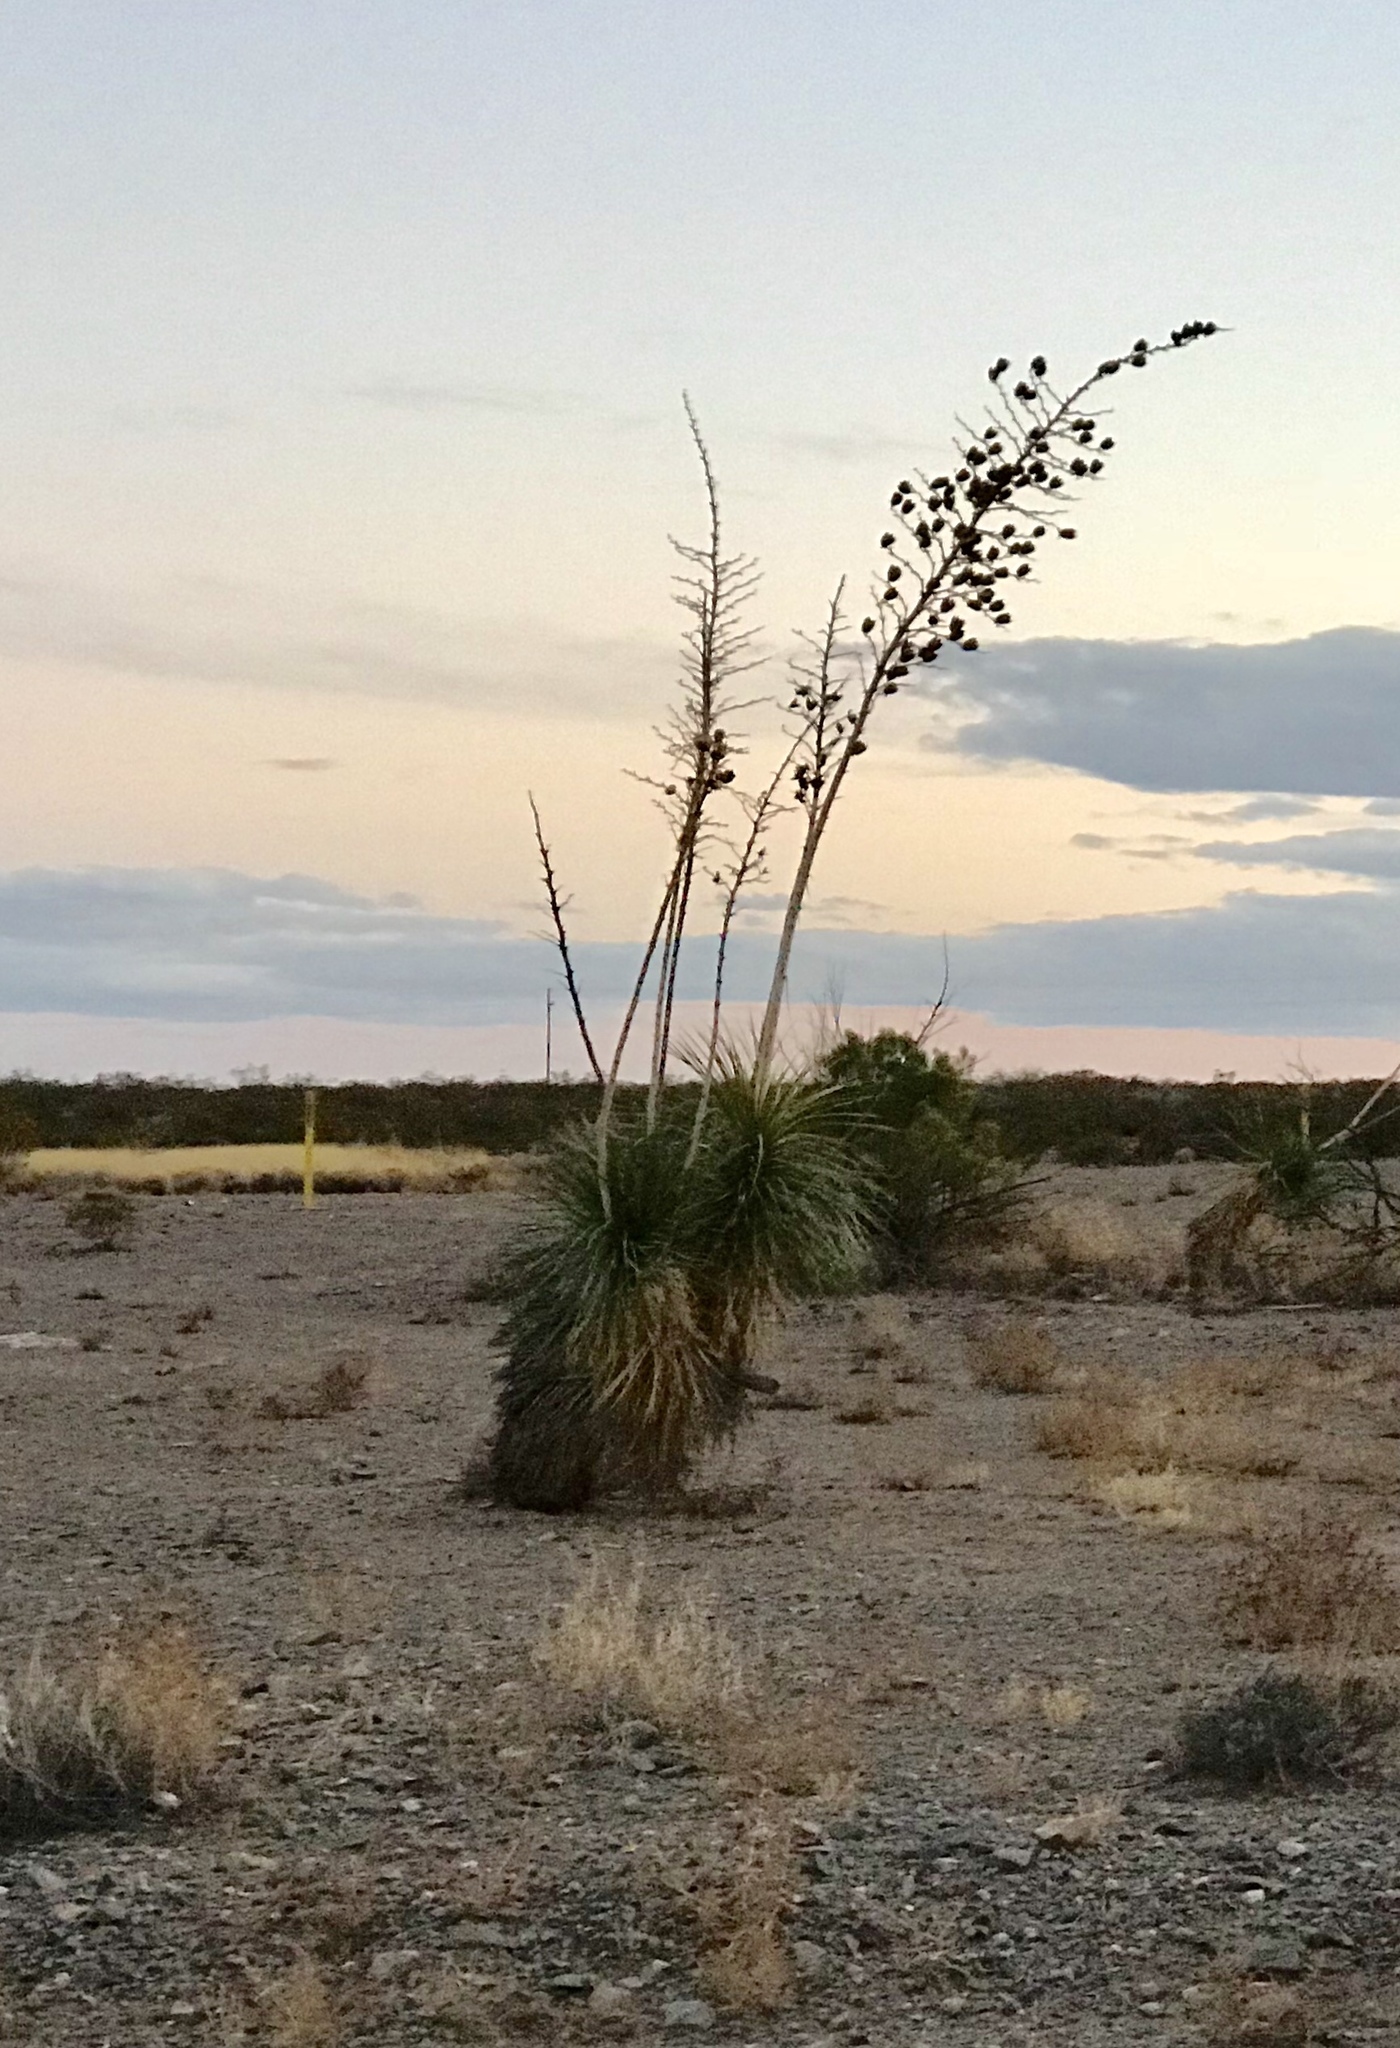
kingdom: Plantae
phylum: Tracheophyta
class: Liliopsida
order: Asparagales
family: Asparagaceae
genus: Yucca
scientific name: Yucca elata
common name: Palmella
